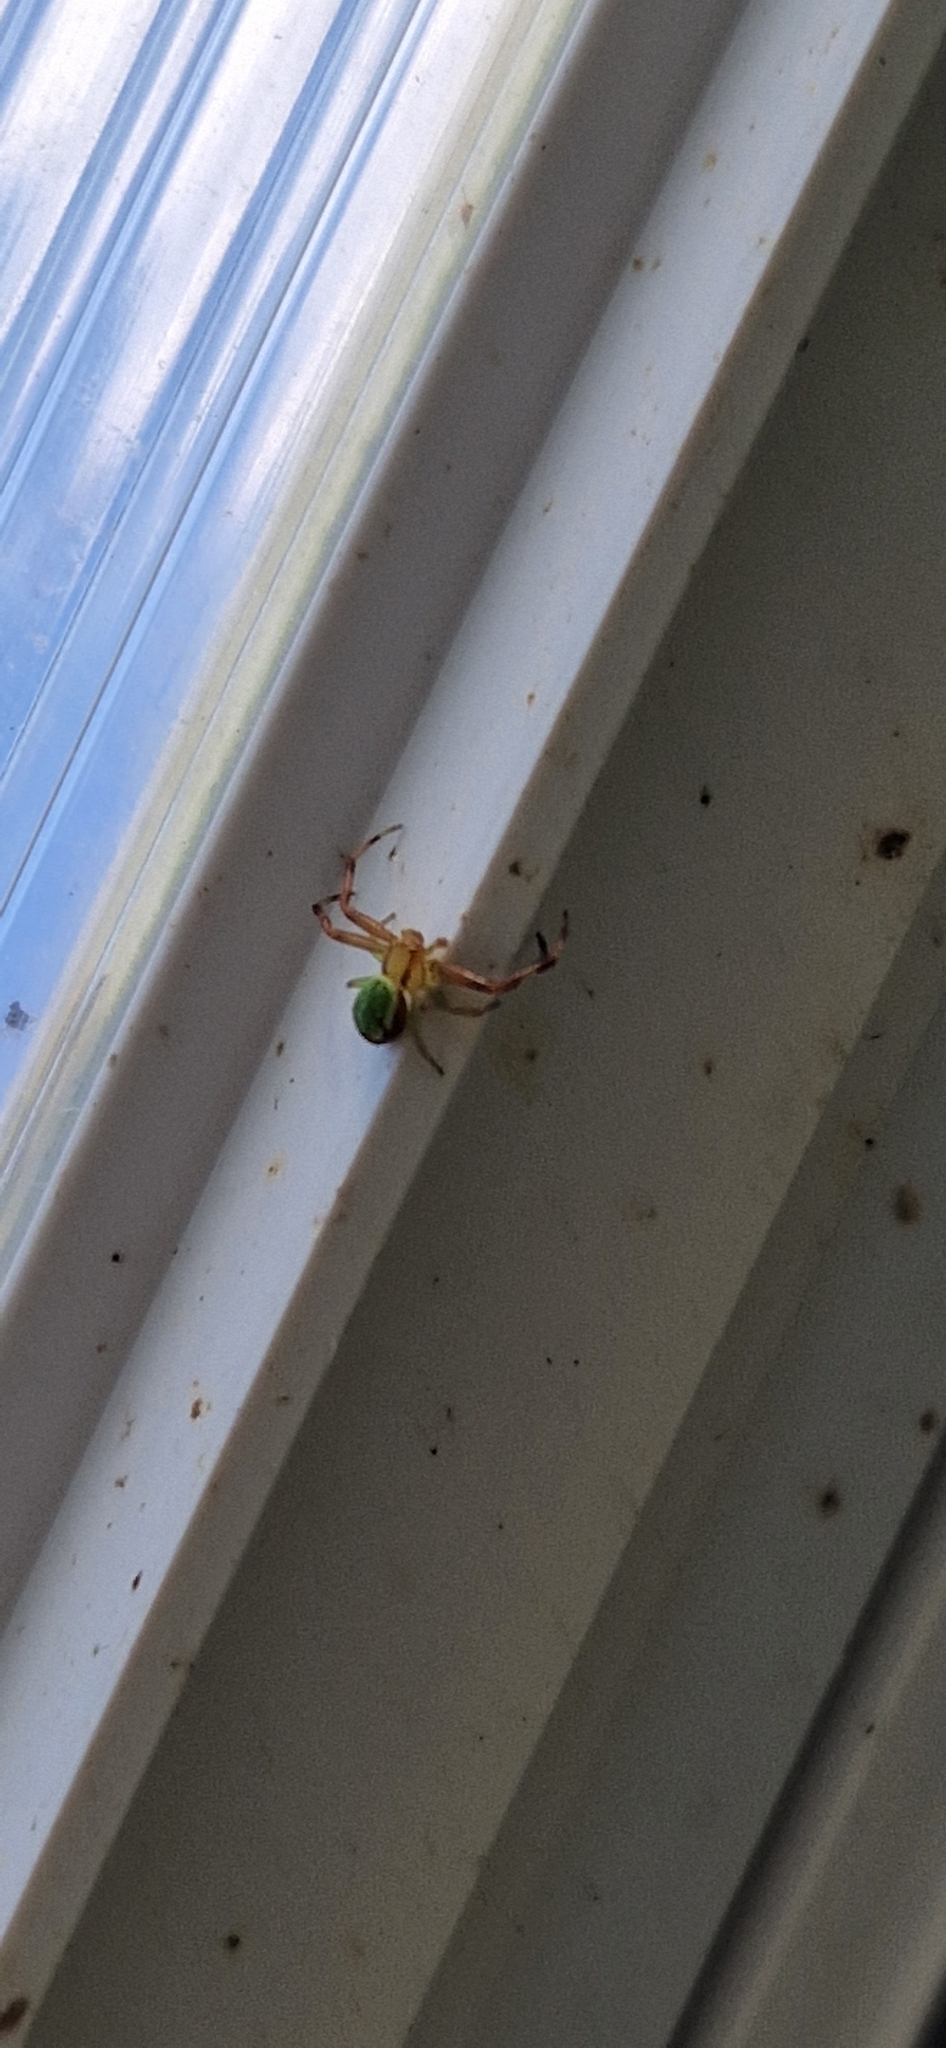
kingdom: Animalia
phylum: Arthropoda
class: Arachnida
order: Araneae
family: Thomisidae
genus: Ebrechtella
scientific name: Ebrechtella tricuspidata
